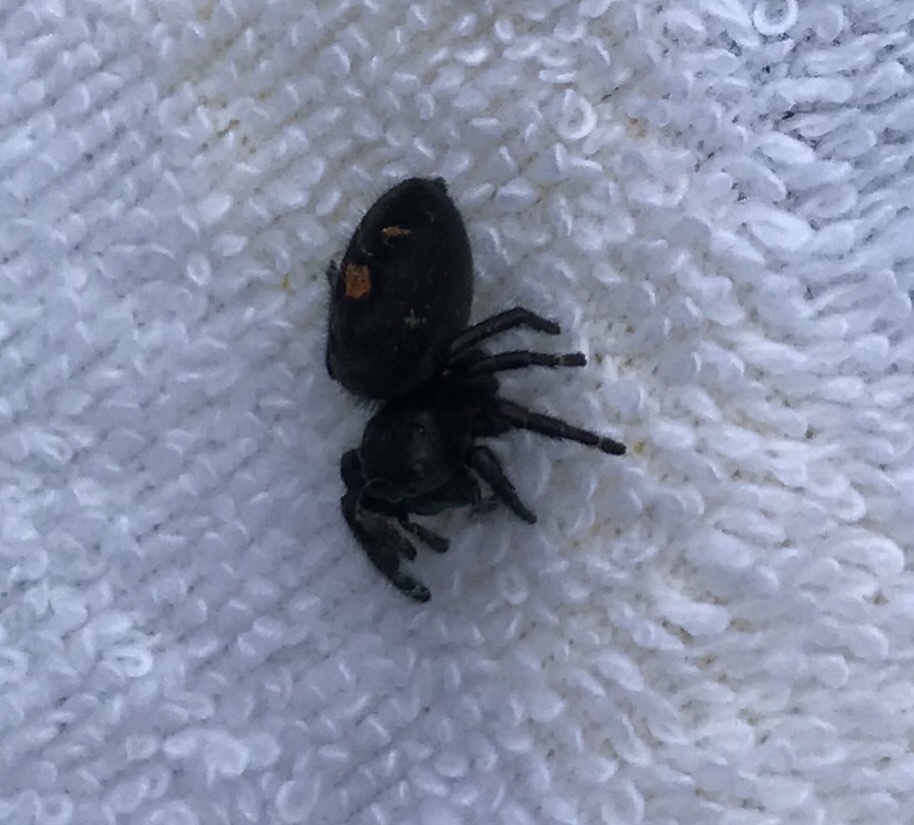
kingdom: Animalia
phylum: Arthropoda
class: Arachnida
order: Araneae
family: Salticidae
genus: Phidippus
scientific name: Phidippus audax
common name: Bold jumper
